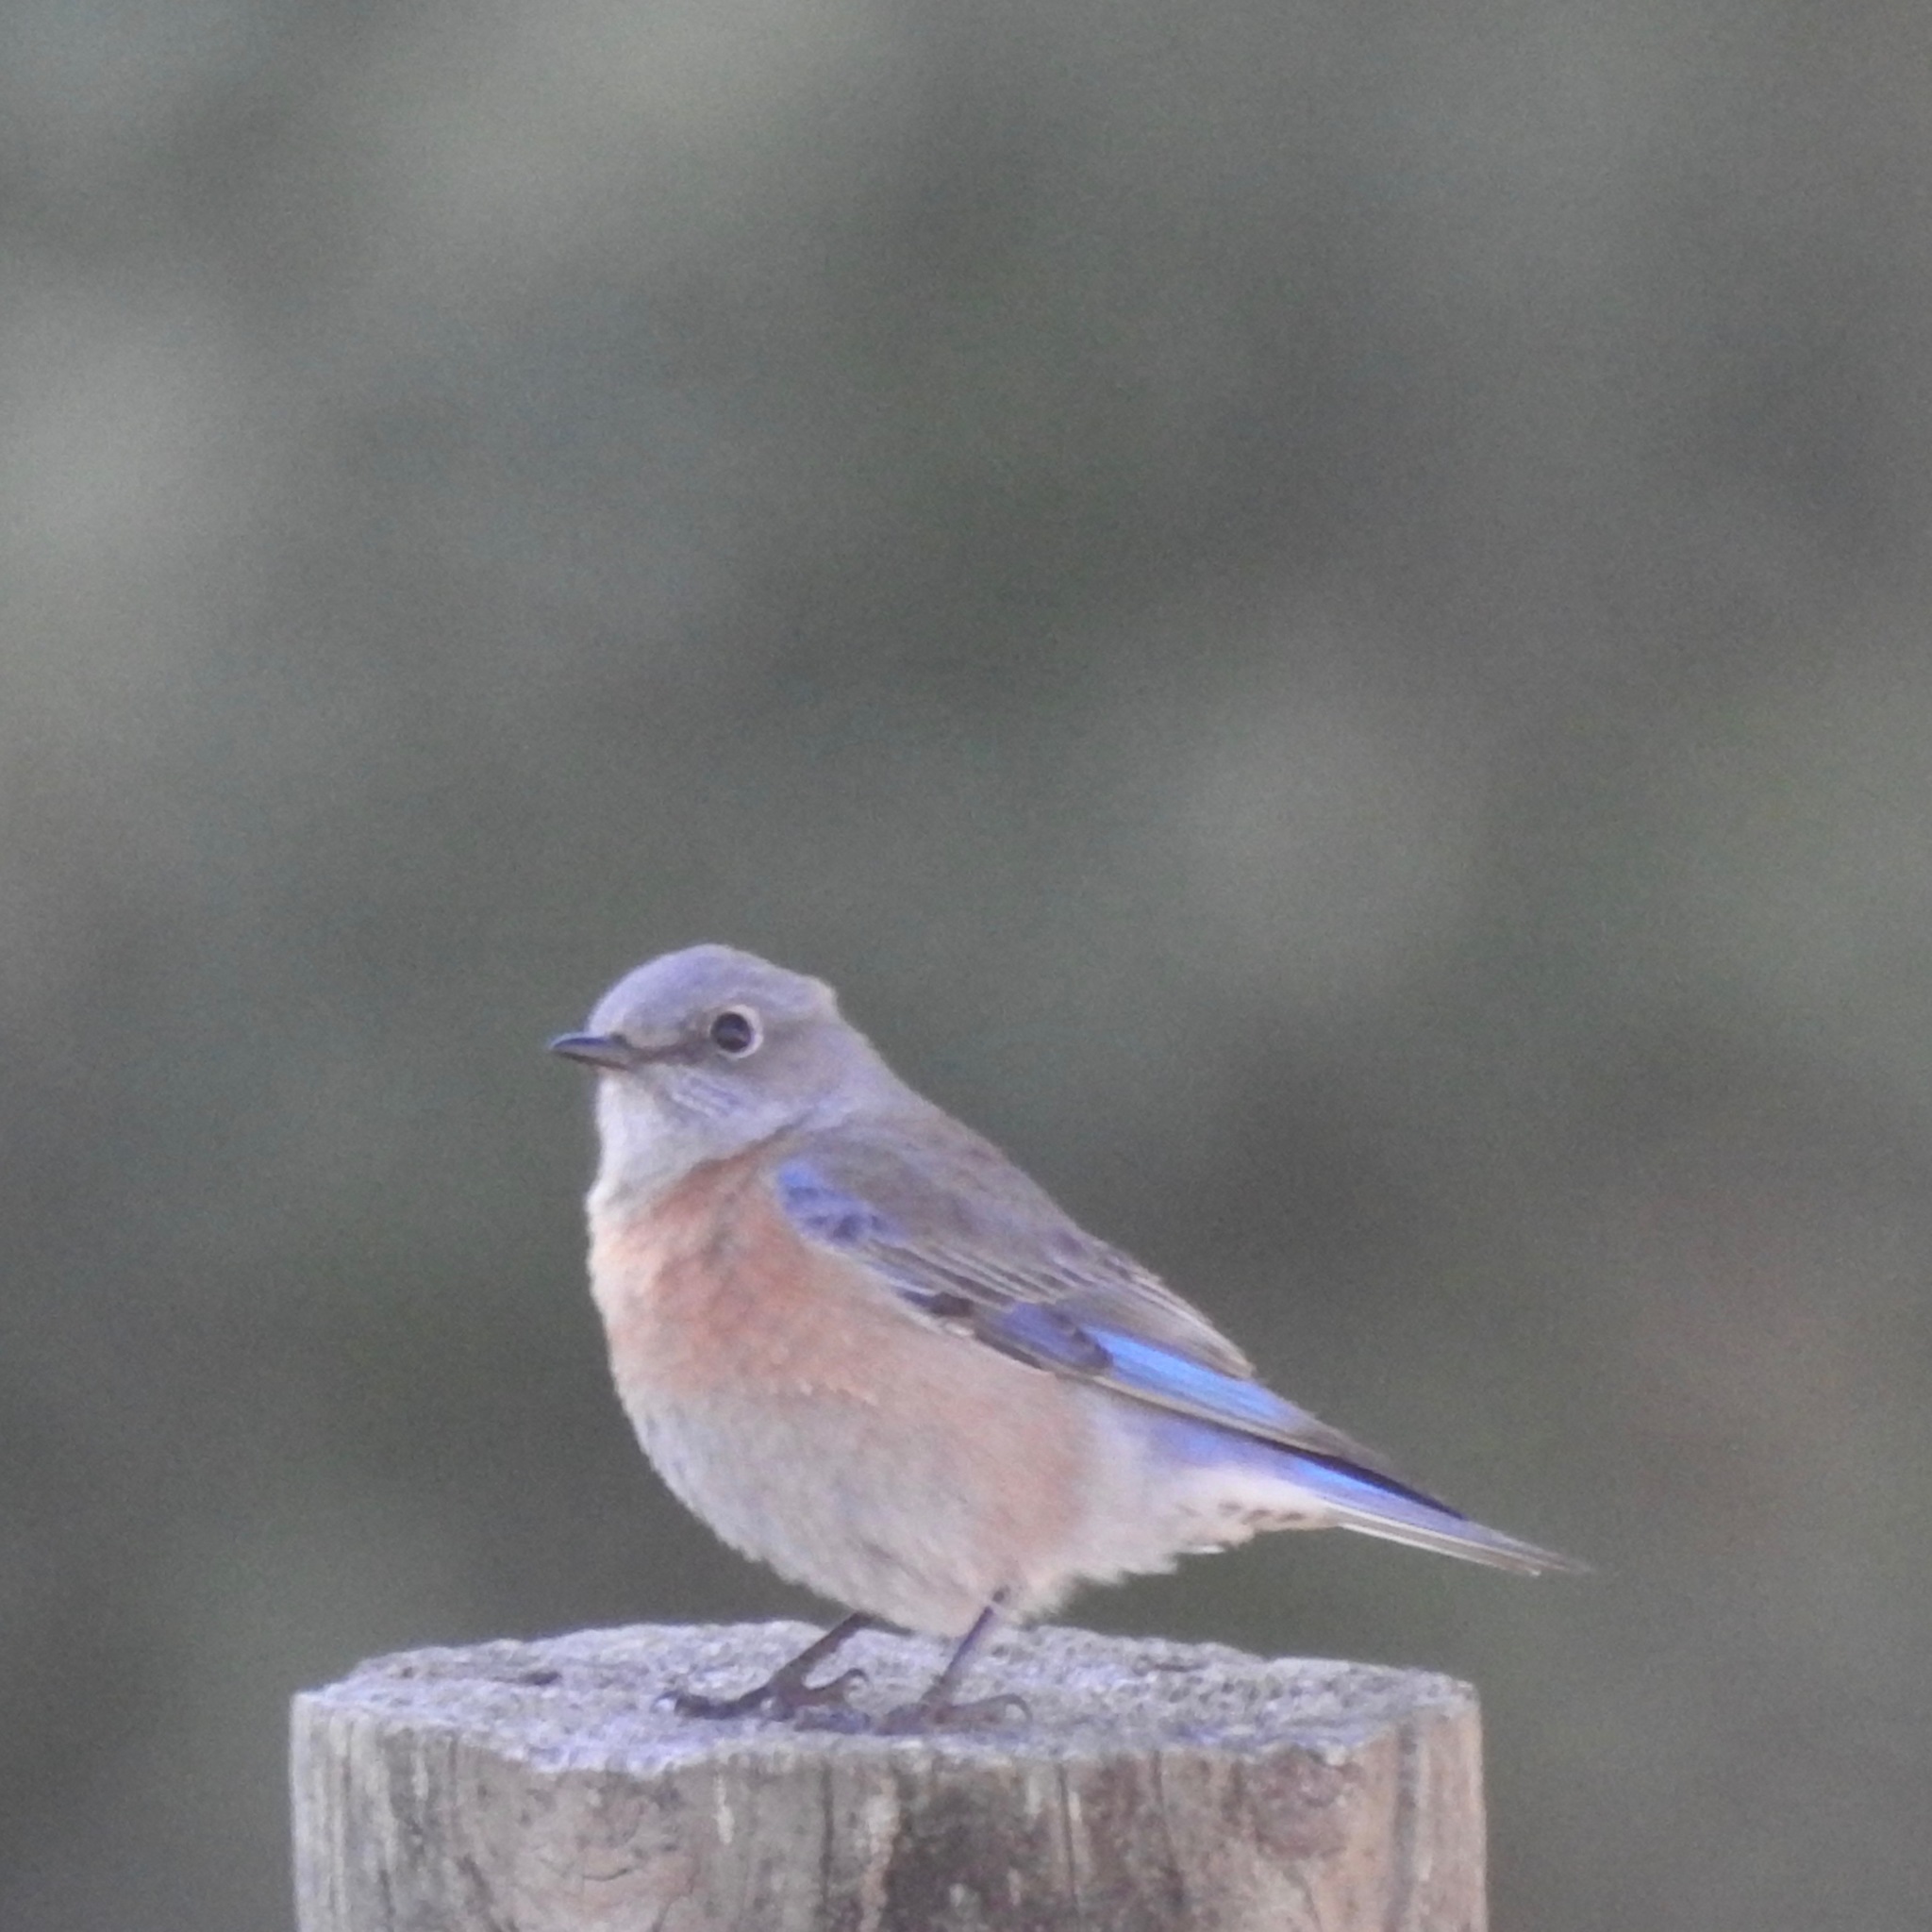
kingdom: Animalia
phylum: Chordata
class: Aves
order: Passeriformes
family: Turdidae
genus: Sialia
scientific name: Sialia mexicana
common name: Western bluebird
